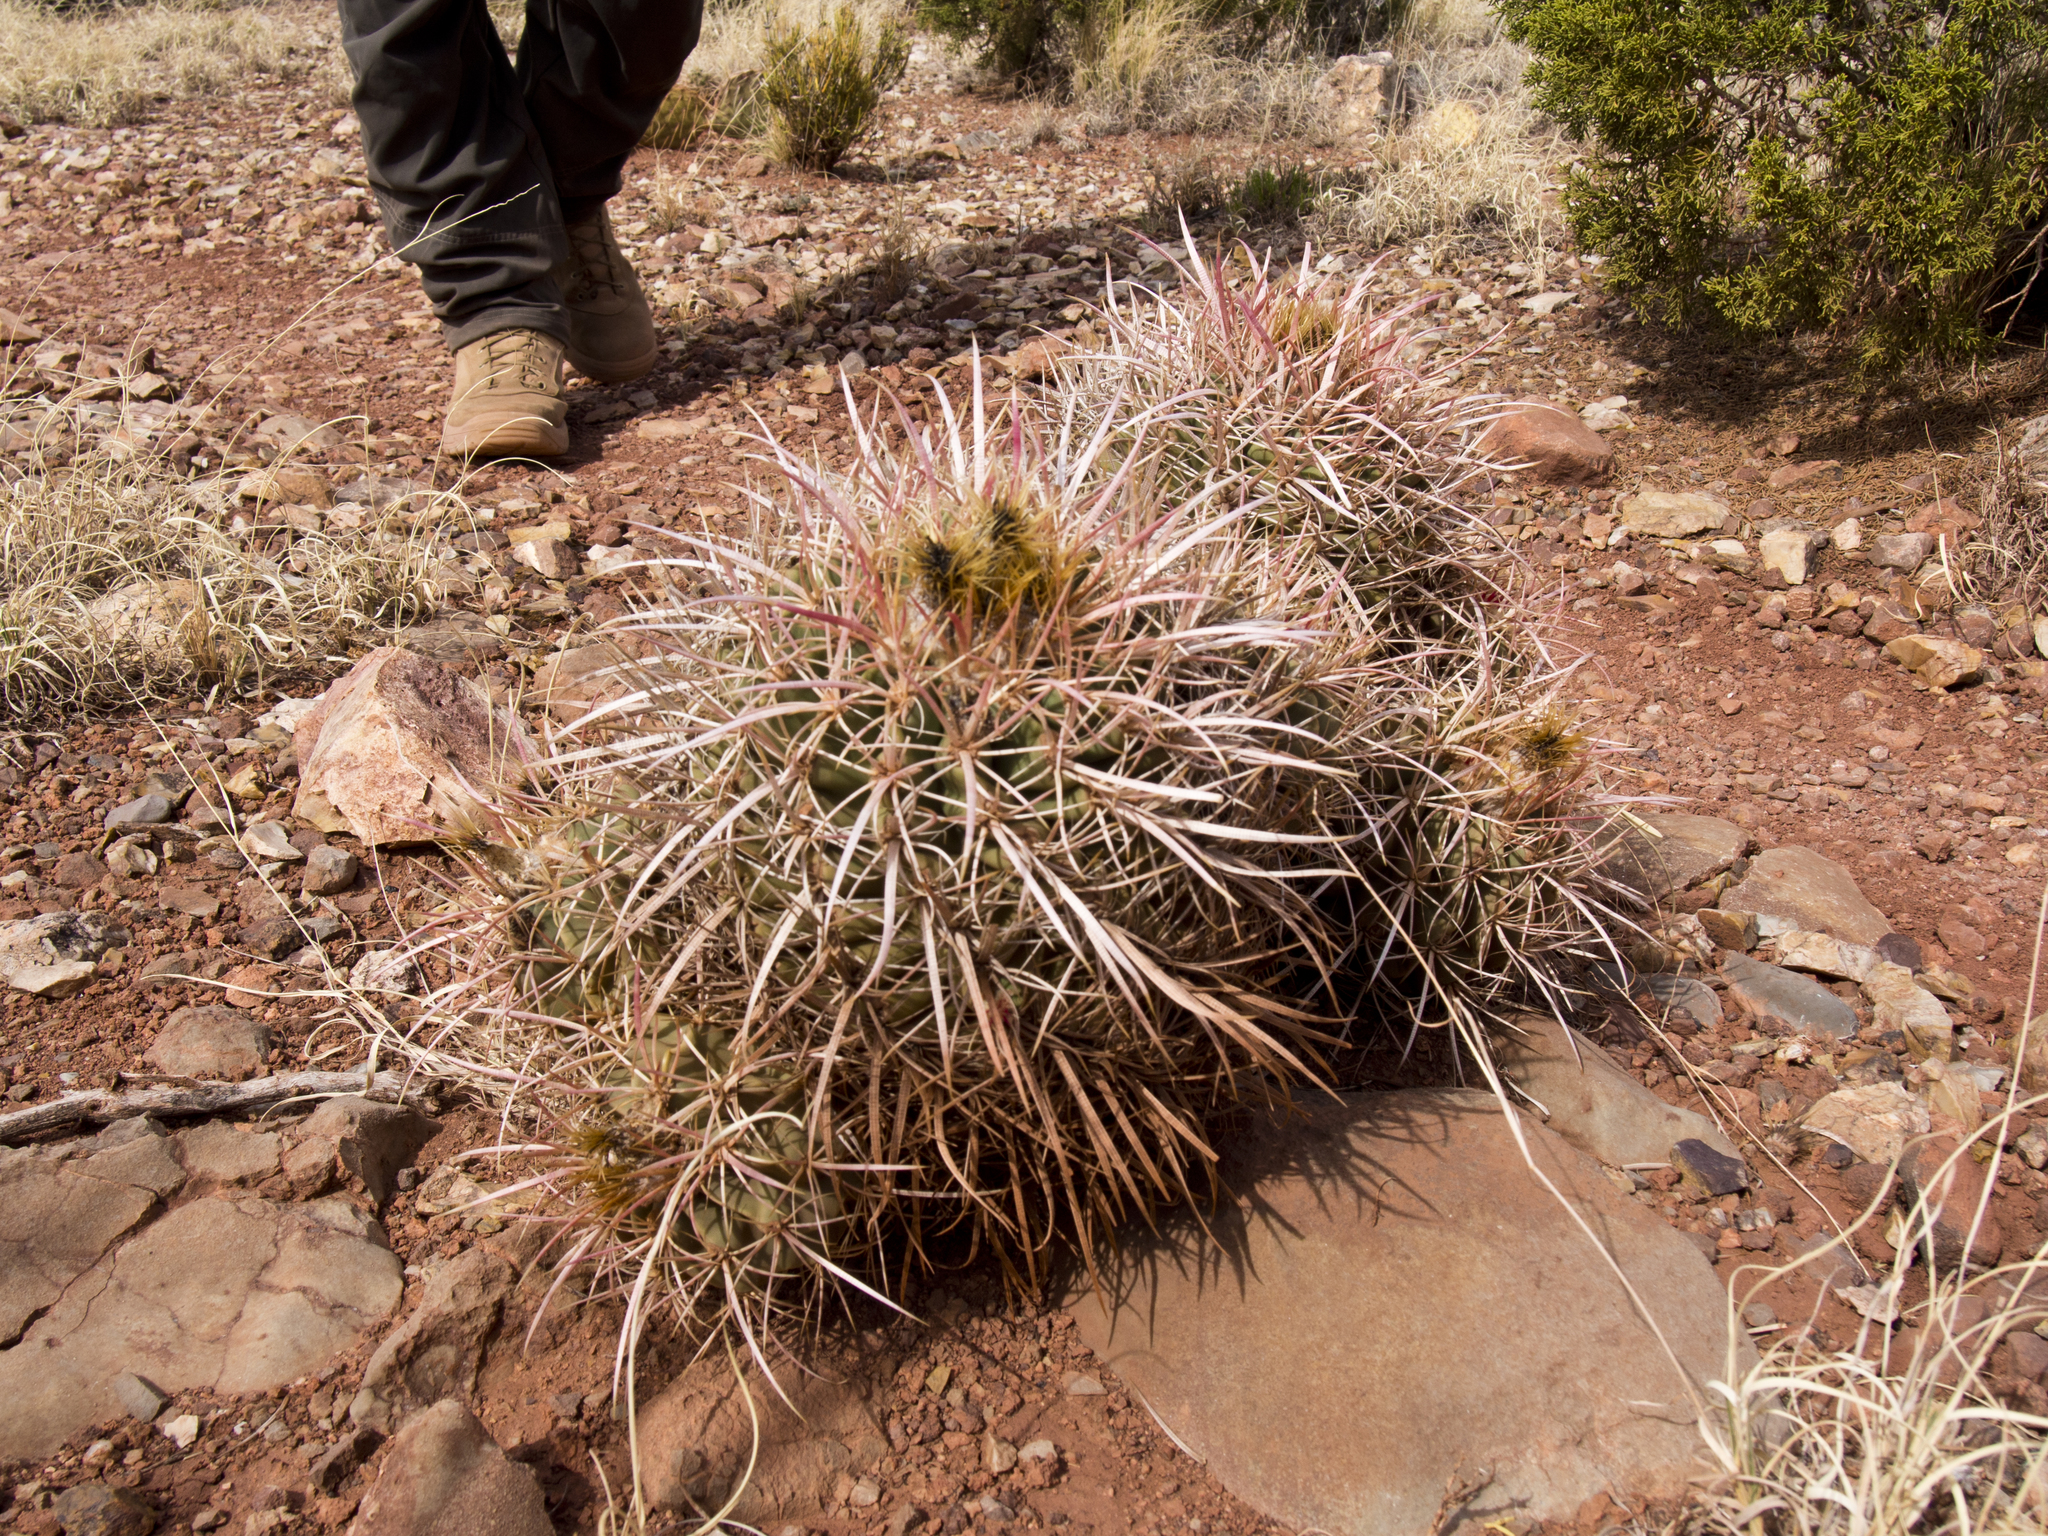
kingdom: Plantae
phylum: Tracheophyta
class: Magnoliopsida
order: Caryophyllales
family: Cactaceae
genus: Echinocactus
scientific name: Echinocactus polycephalus
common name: Cottontop cactus
